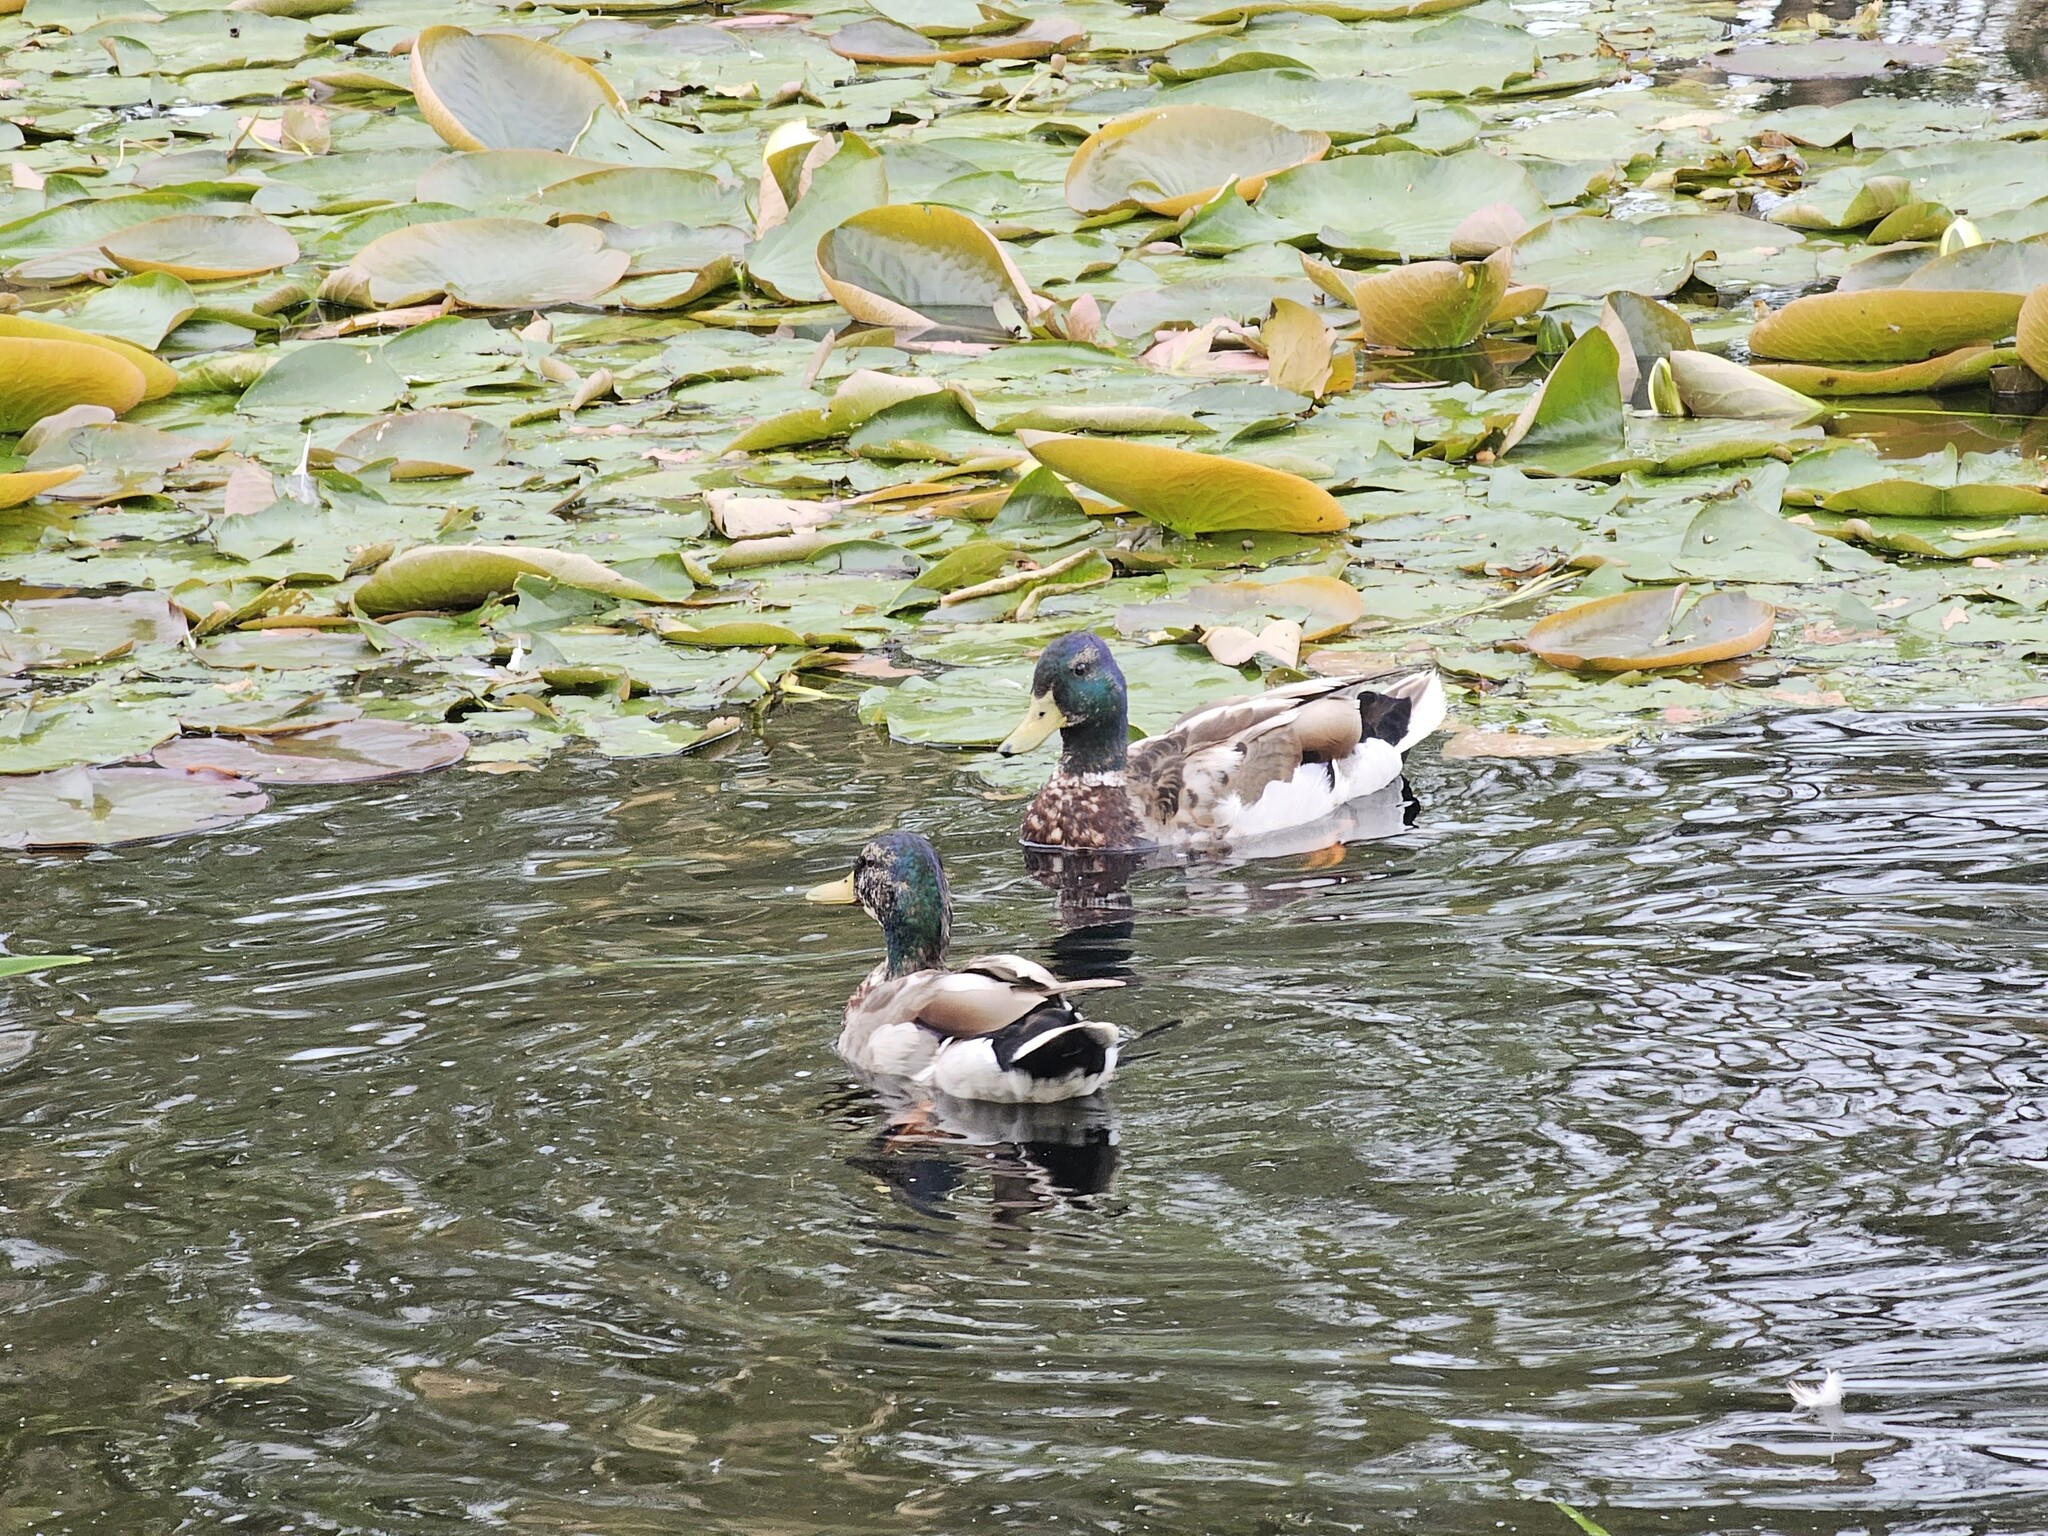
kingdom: Animalia
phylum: Chordata
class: Aves
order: Anseriformes
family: Anatidae
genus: Anas
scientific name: Anas platyrhynchos
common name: Mallard
